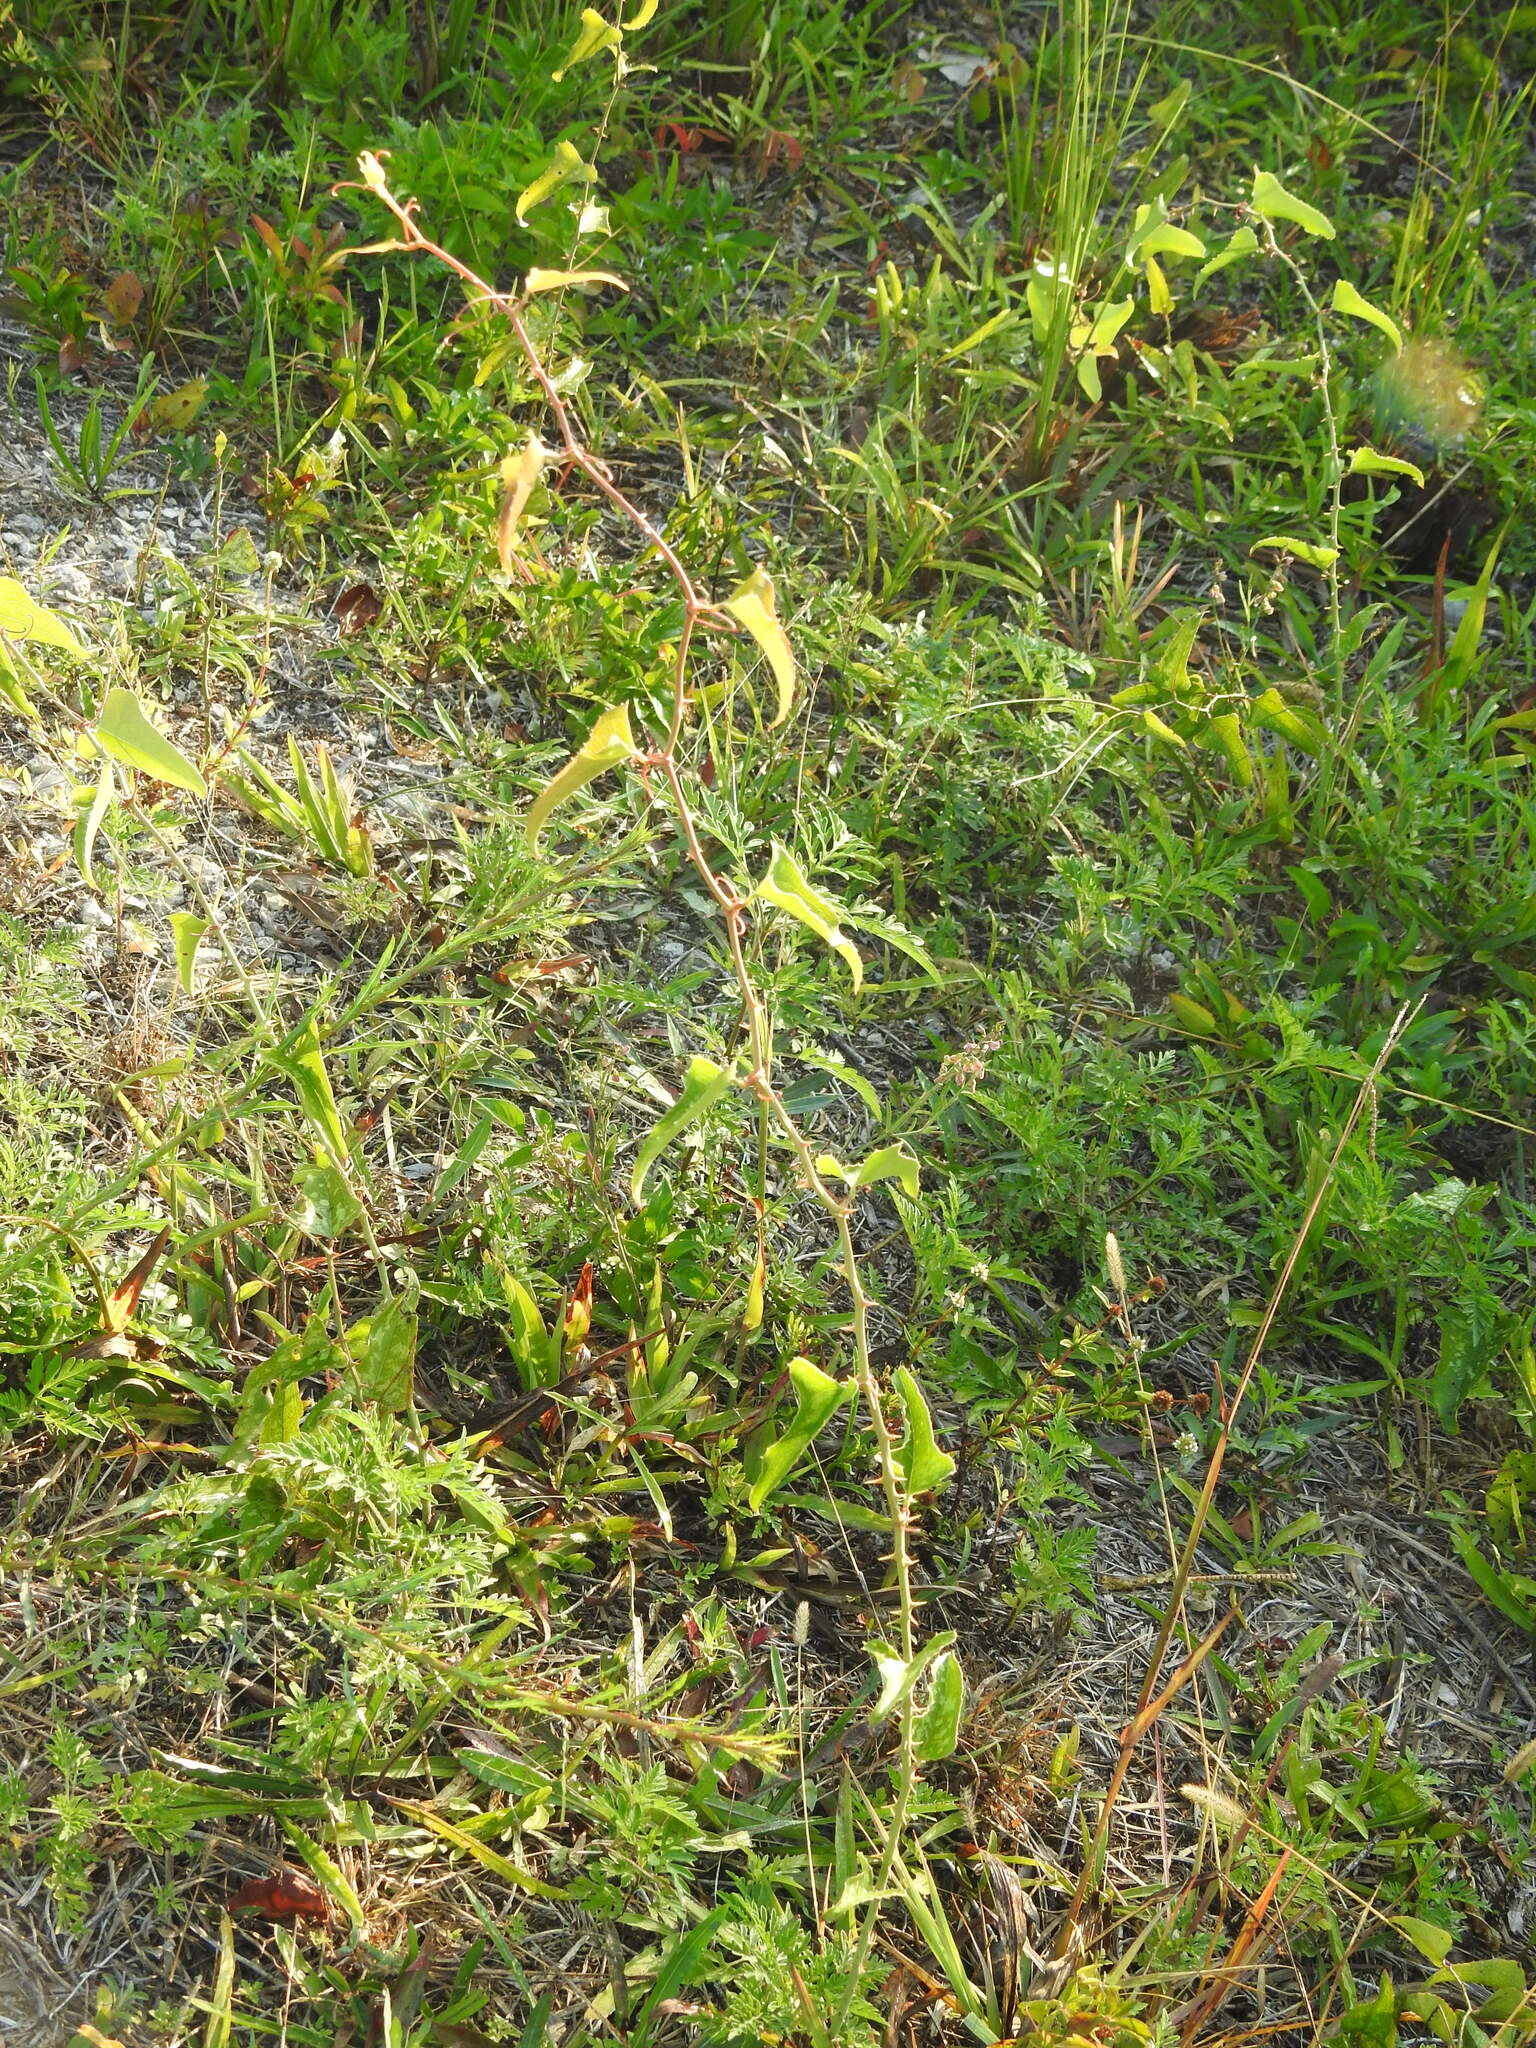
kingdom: Plantae
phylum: Tracheophyta
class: Liliopsida
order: Liliales
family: Smilacaceae
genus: Smilax
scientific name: Smilax bona-nox
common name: Catbrier
